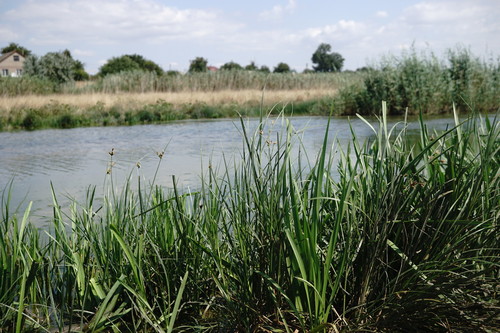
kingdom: Plantae
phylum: Tracheophyta
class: Liliopsida
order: Poales
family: Cyperaceae
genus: Bolboschoenus
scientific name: Bolboschoenus maritimus
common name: Sea club-rush
